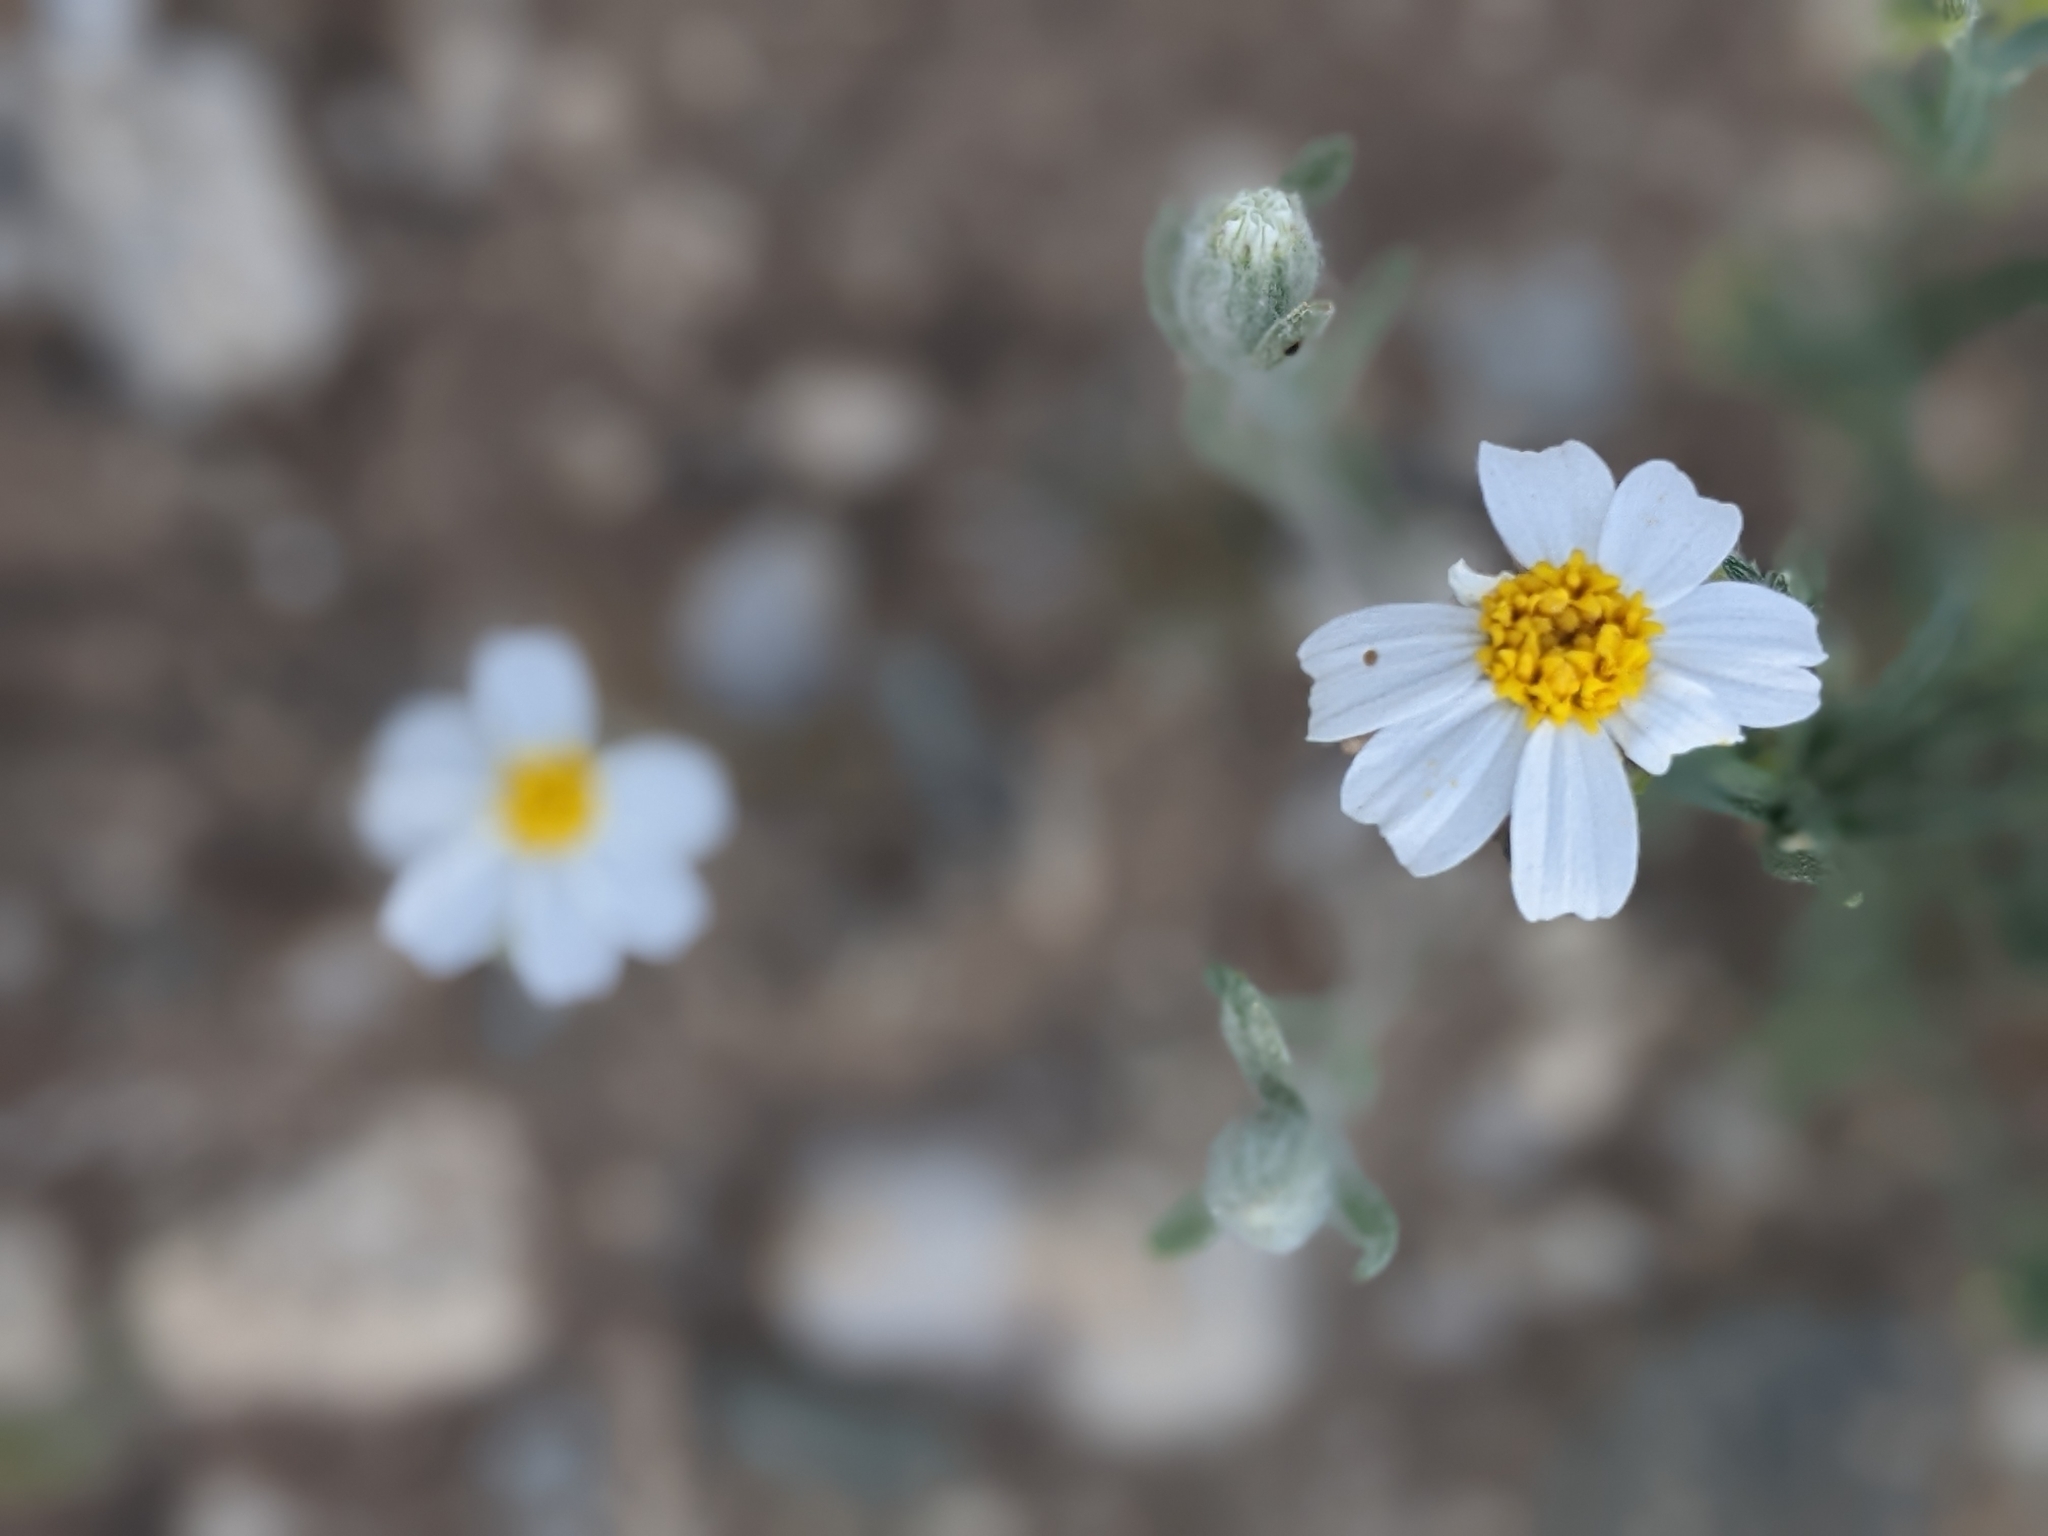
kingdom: Plantae
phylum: Tracheophyta
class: Magnoliopsida
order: Asterales
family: Asteraceae
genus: Eriophyllum
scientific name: Eriophyllum lanosum
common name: White easter-bonnets
